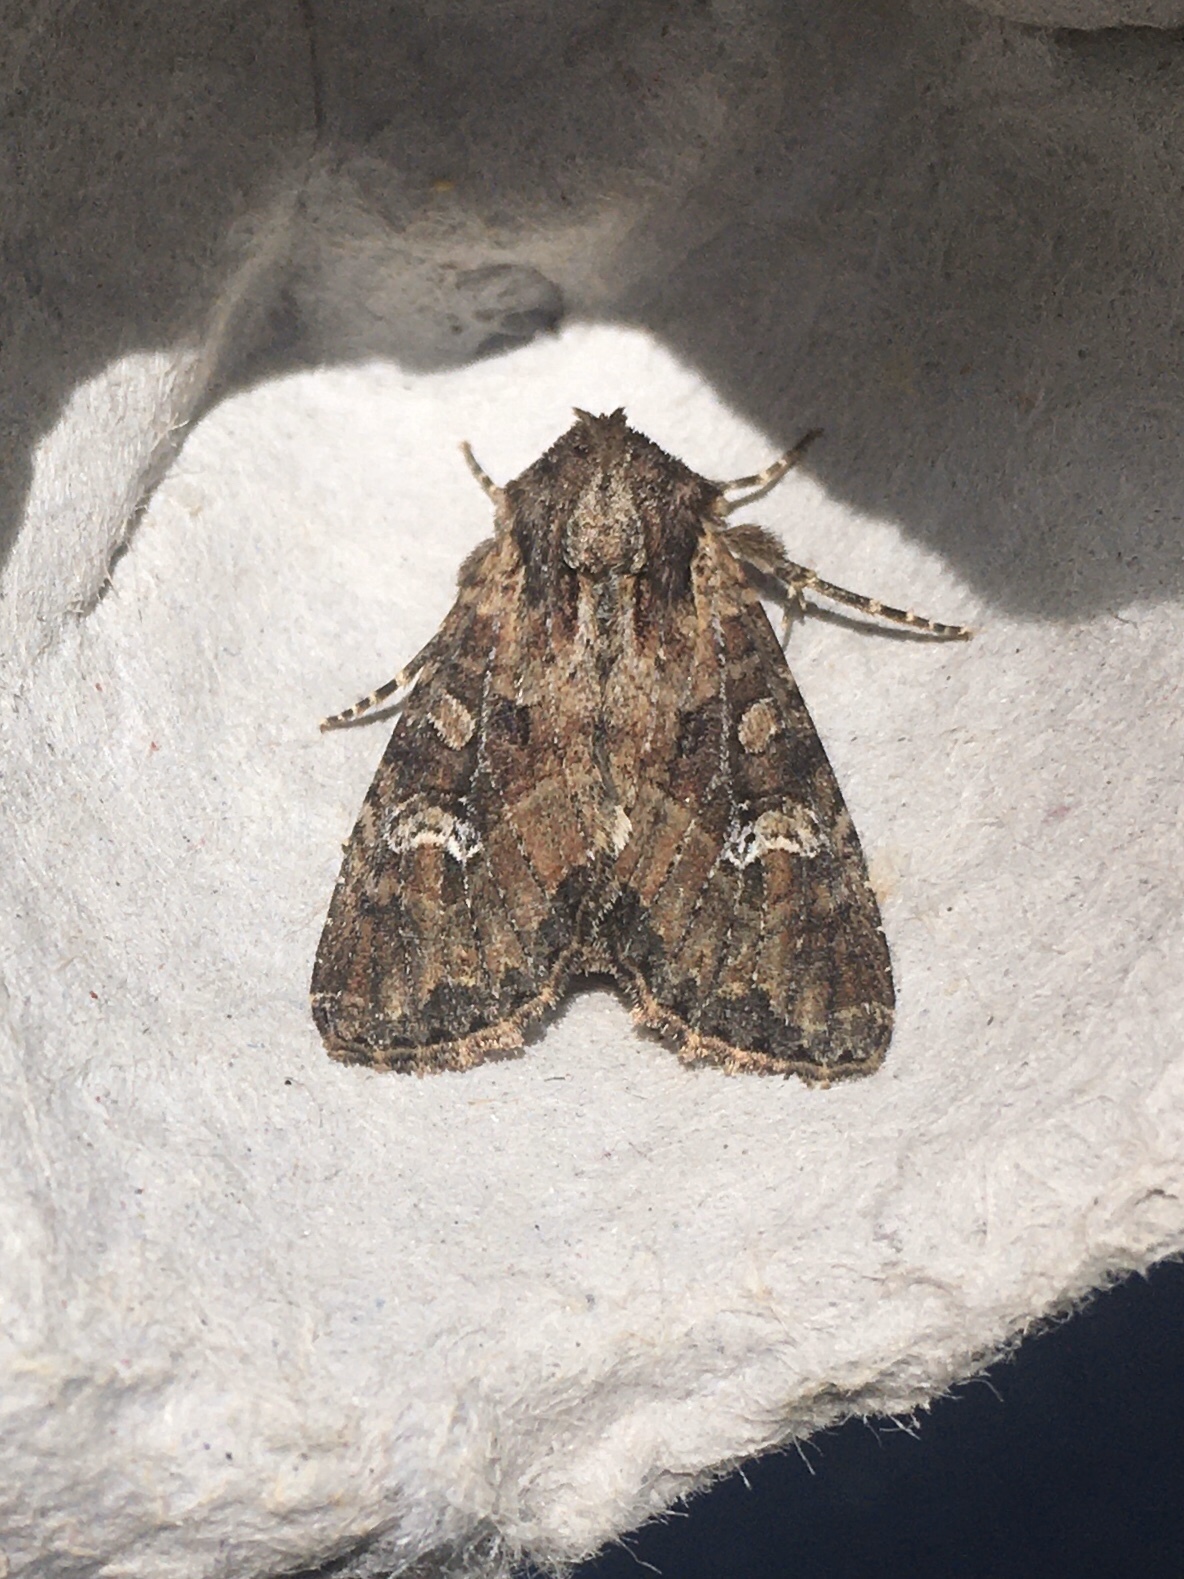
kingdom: Animalia
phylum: Arthropoda
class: Insecta
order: Lepidoptera
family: Noctuidae
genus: Apamea
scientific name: Apamea unanimis
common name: Small clouded brindle
